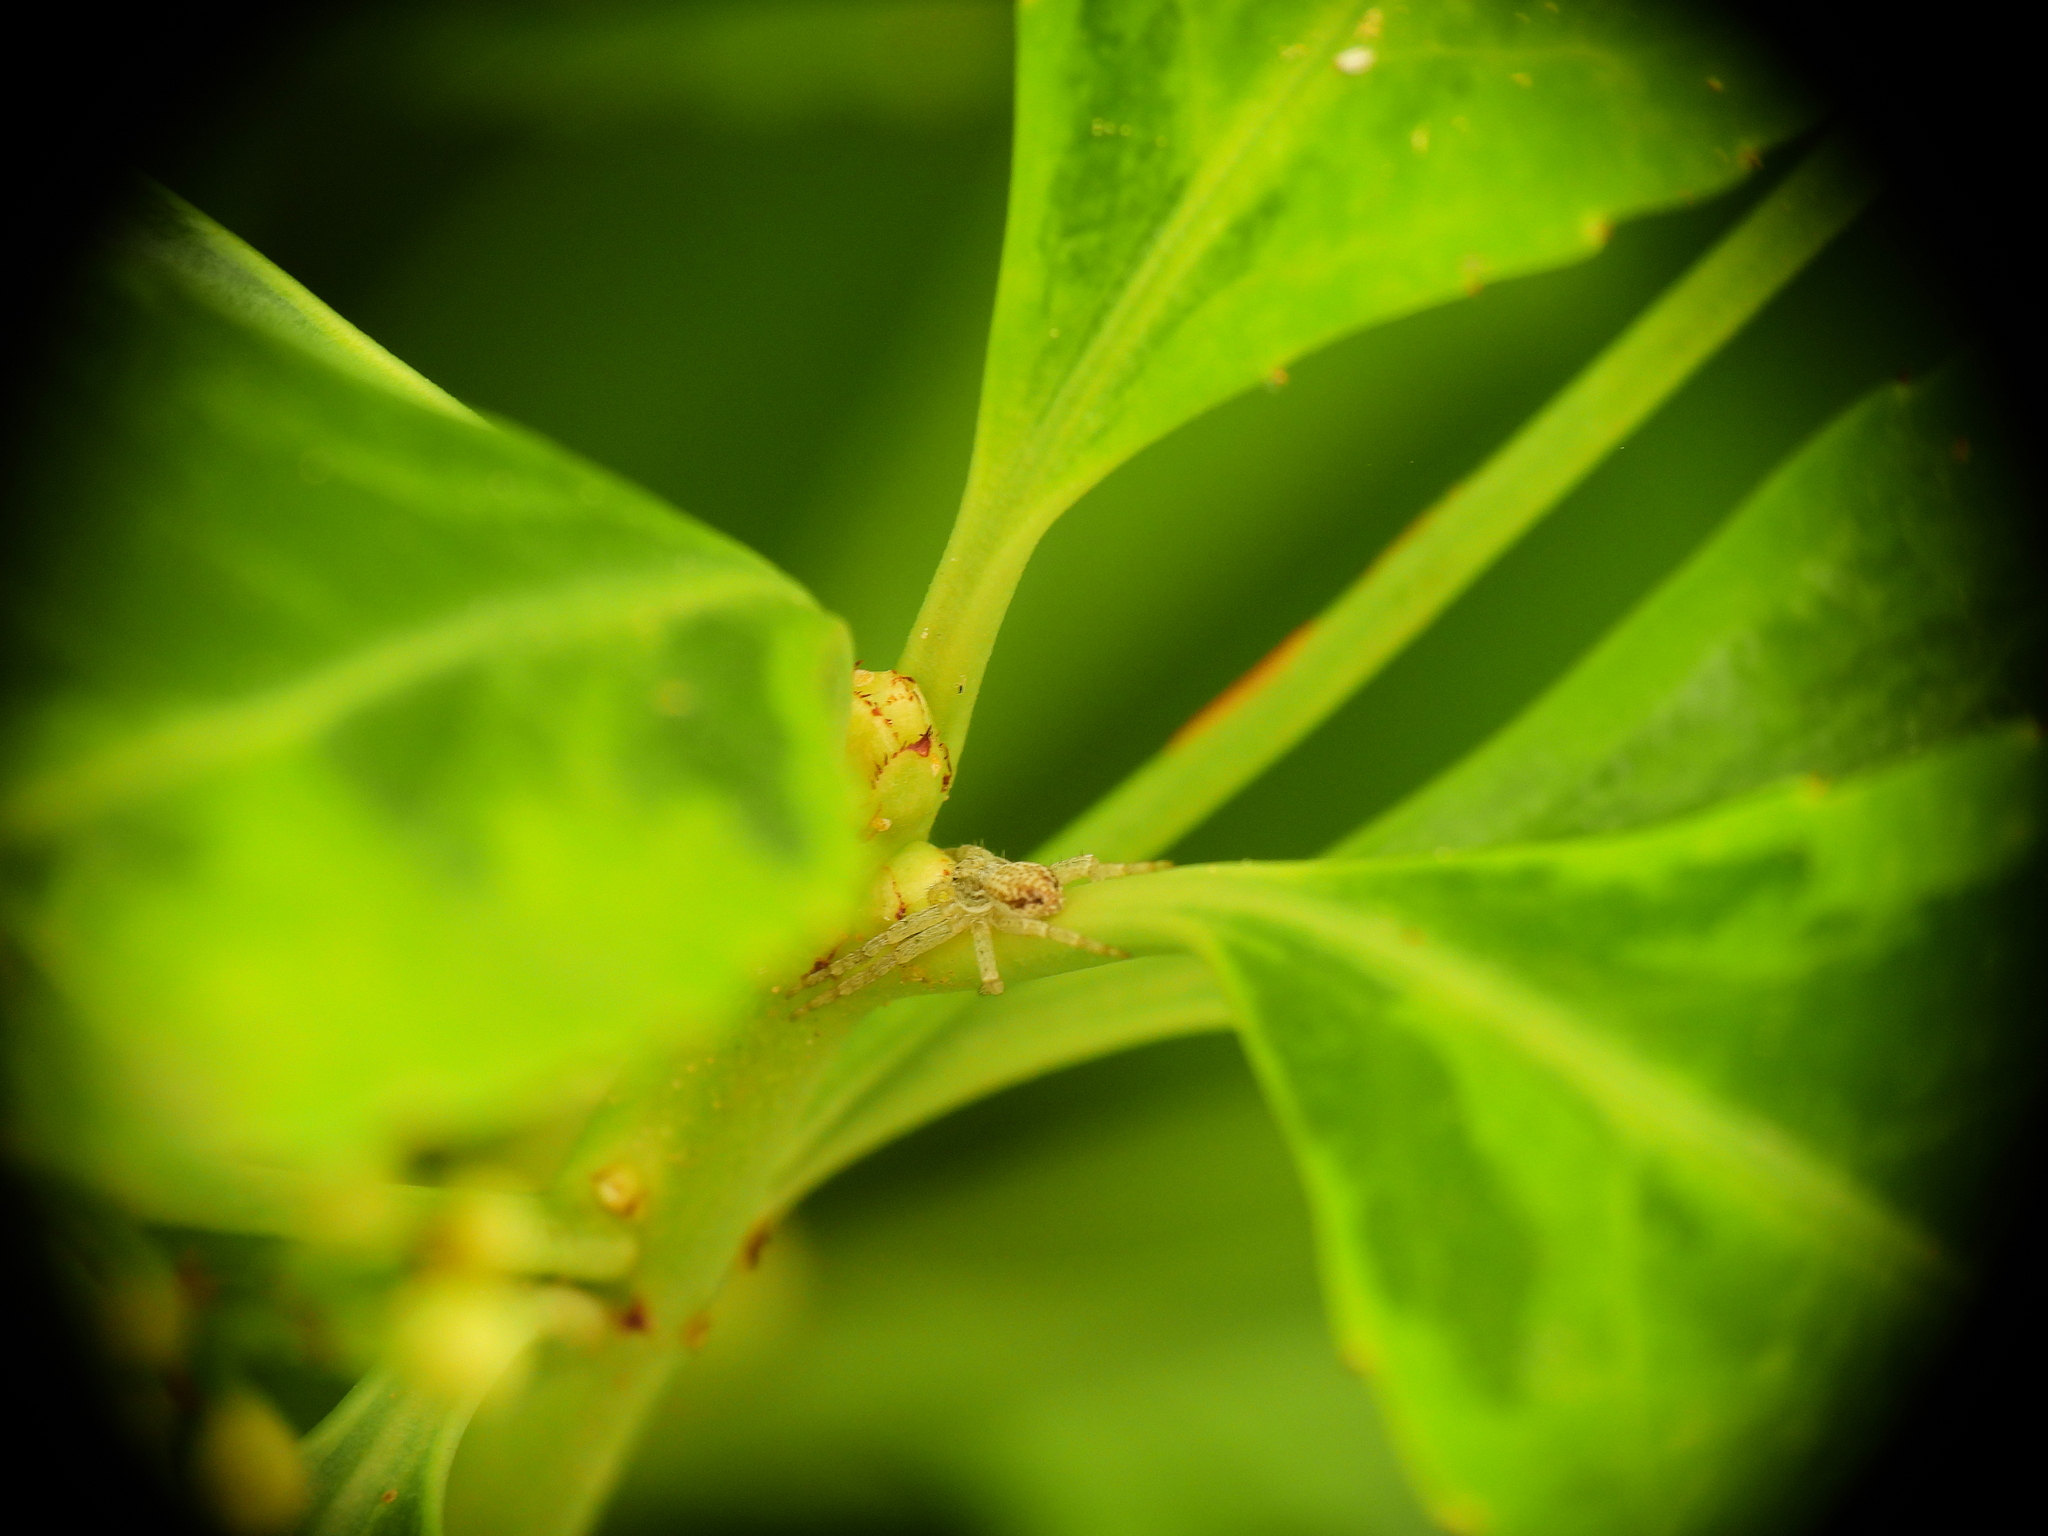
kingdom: Animalia
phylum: Arthropoda
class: Arachnida
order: Araneae
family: Philodromidae
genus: Philodromus
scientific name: Philodromus dispar
